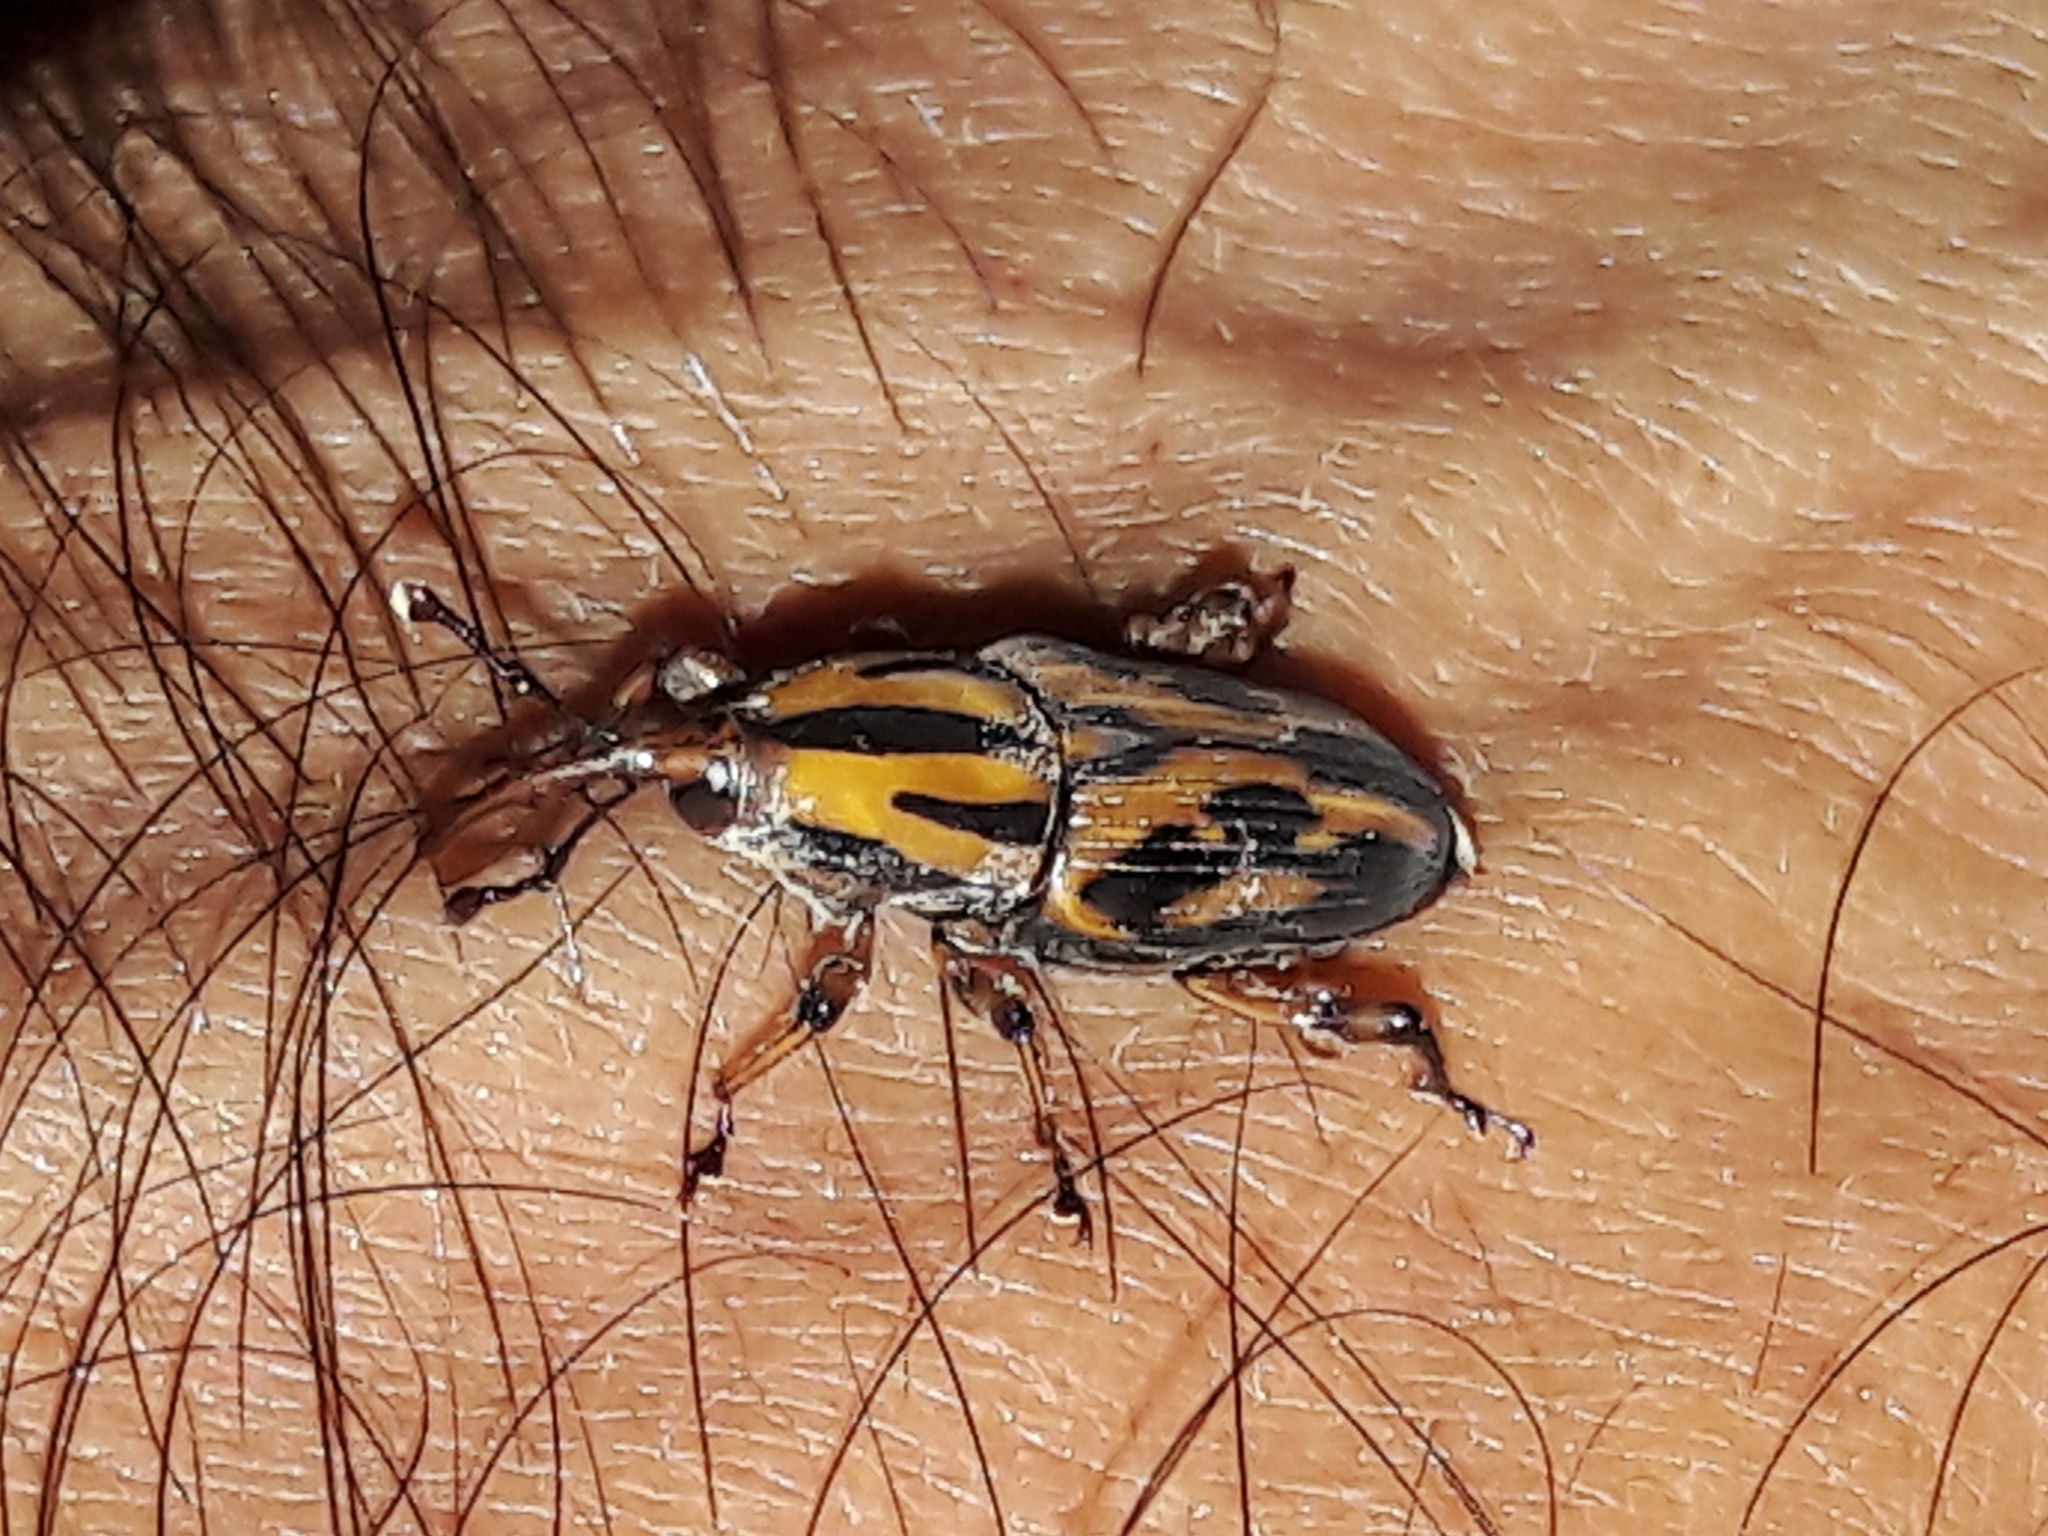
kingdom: Animalia
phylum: Arthropoda
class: Insecta
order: Coleoptera
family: Dryophthoridae
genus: Metamasius
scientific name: Metamasius hemipterus
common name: Weevil
